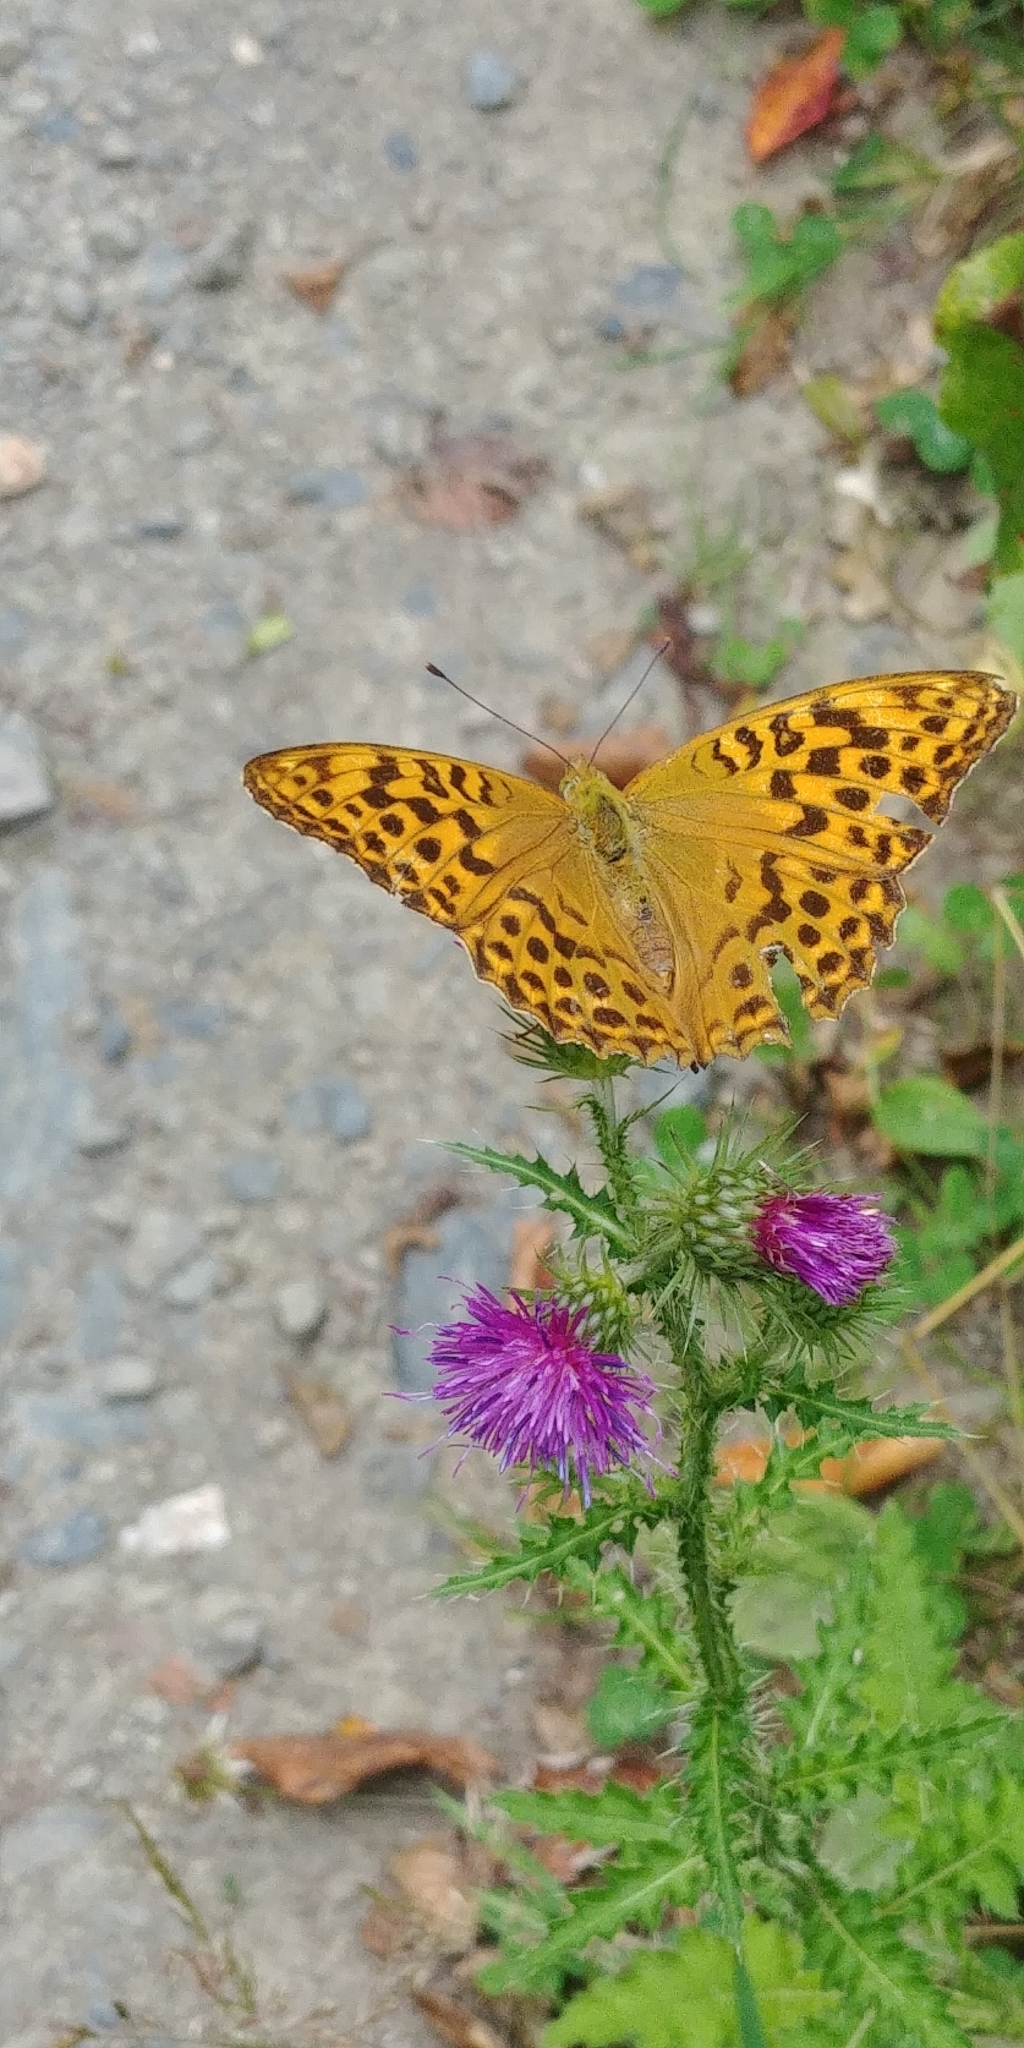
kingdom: Animalia
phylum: Arthropoda
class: Insecta
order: Lepidoptera
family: Nymphalidae
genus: Argynnis
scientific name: Argynnis paphia
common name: Silver-washed fritillary
